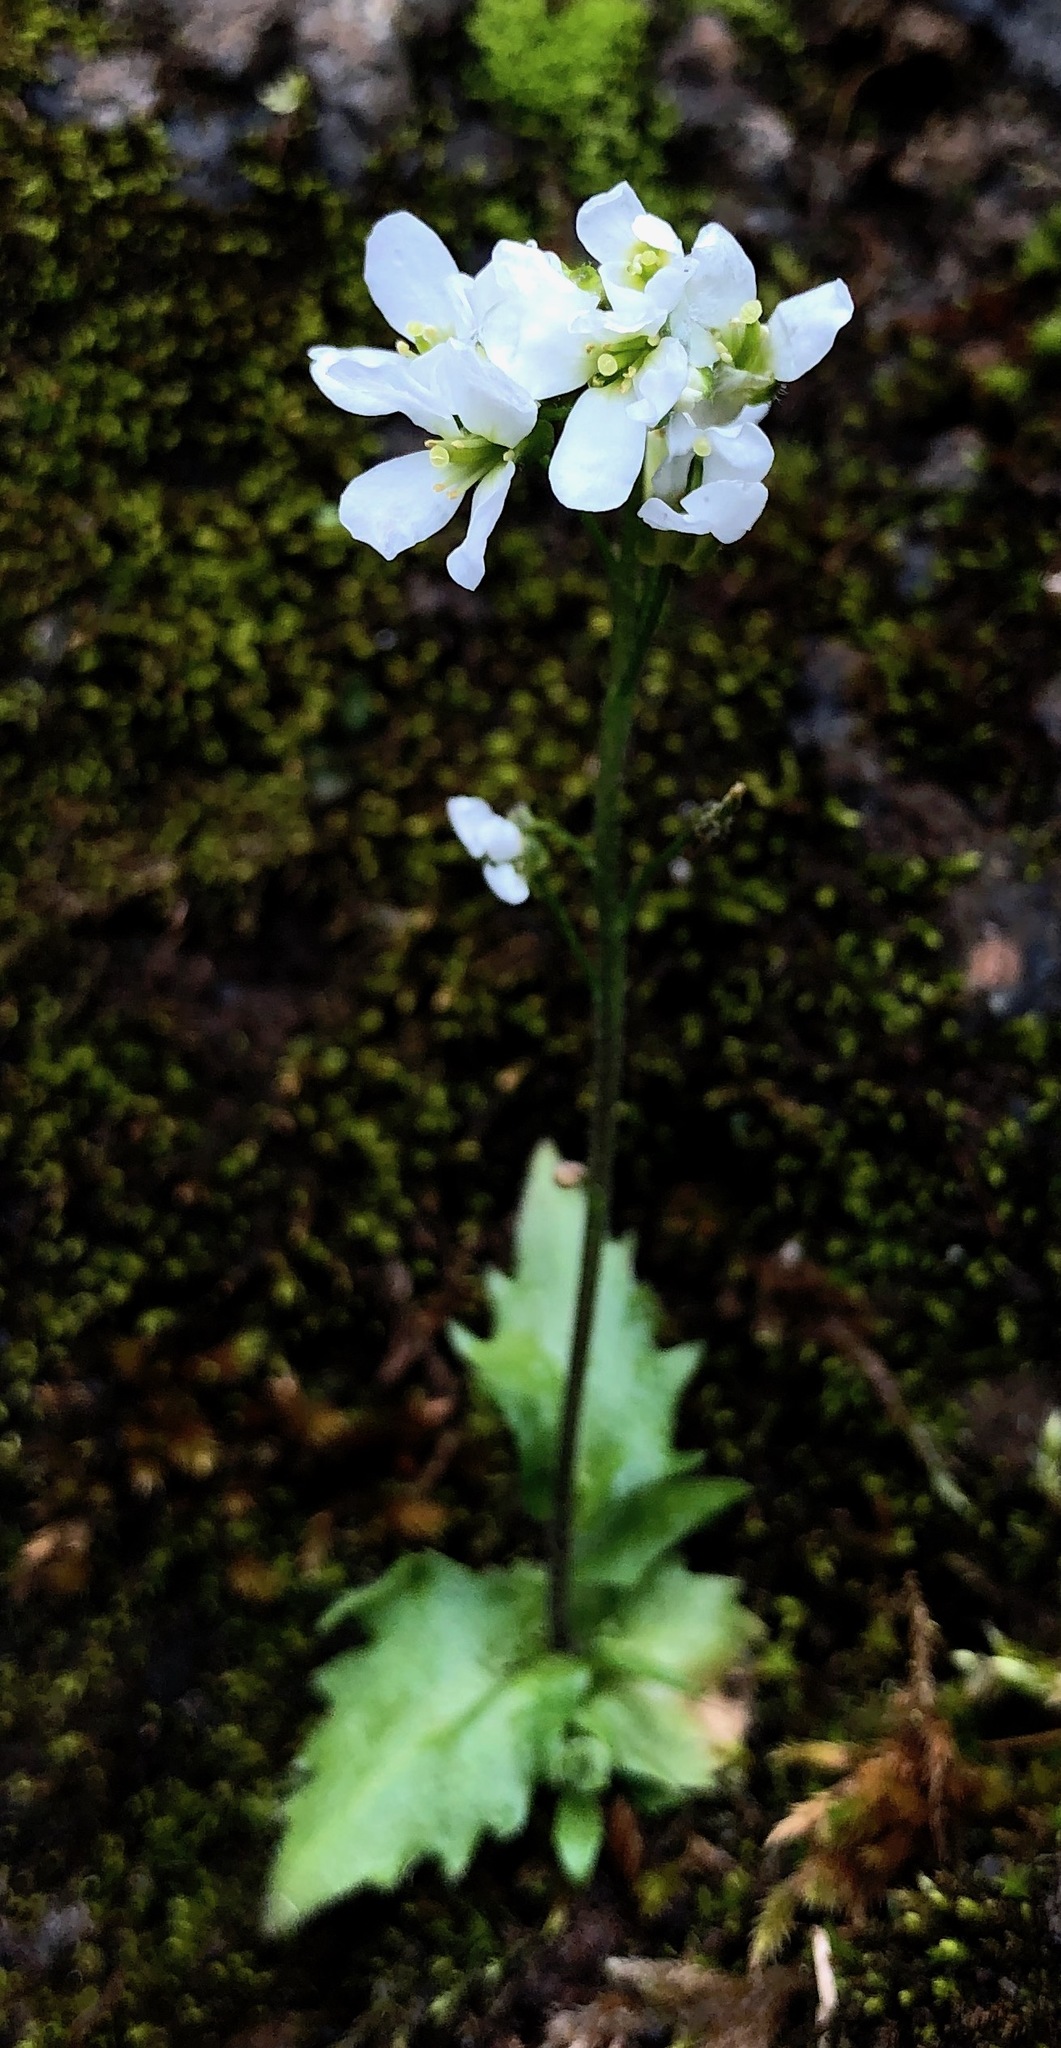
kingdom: Plantae
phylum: Tracheophyta
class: Magnoliopsida
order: Brassicales
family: Brassicaceae
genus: Arabis
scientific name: Arabis alpina
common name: Alpine rock-cress
